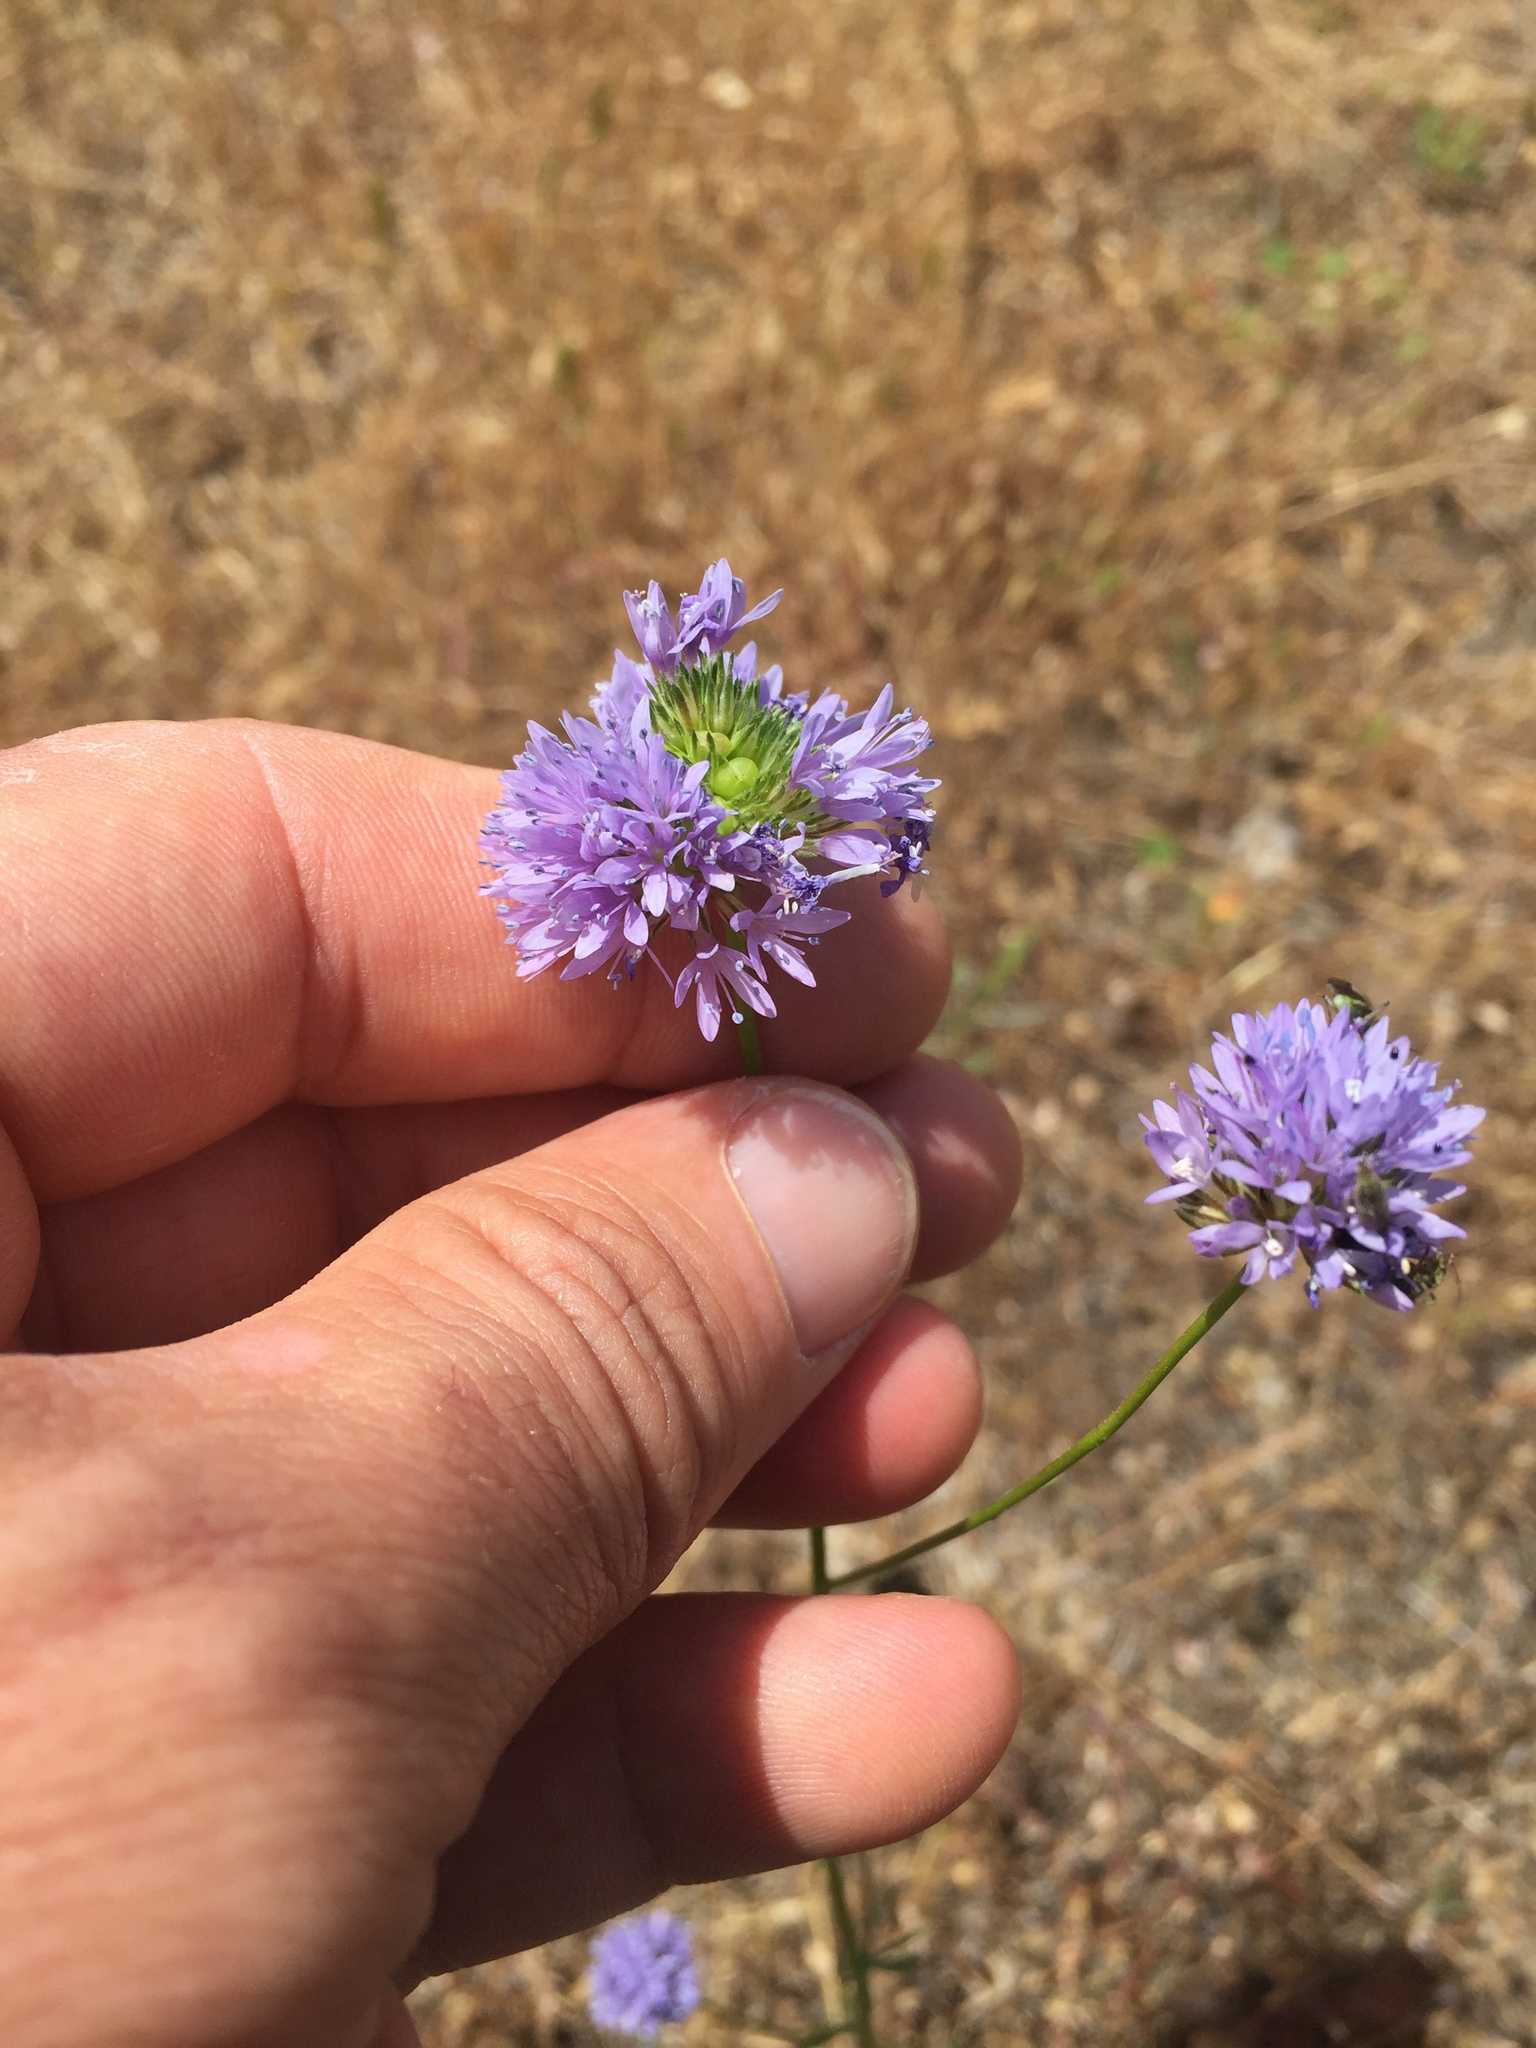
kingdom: Plantae
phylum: Tracheophyta
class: Magnoliopsida
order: Ericales
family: Polemoniaceae
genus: Gilia
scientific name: Gilia capitata
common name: Bluehead gilia
